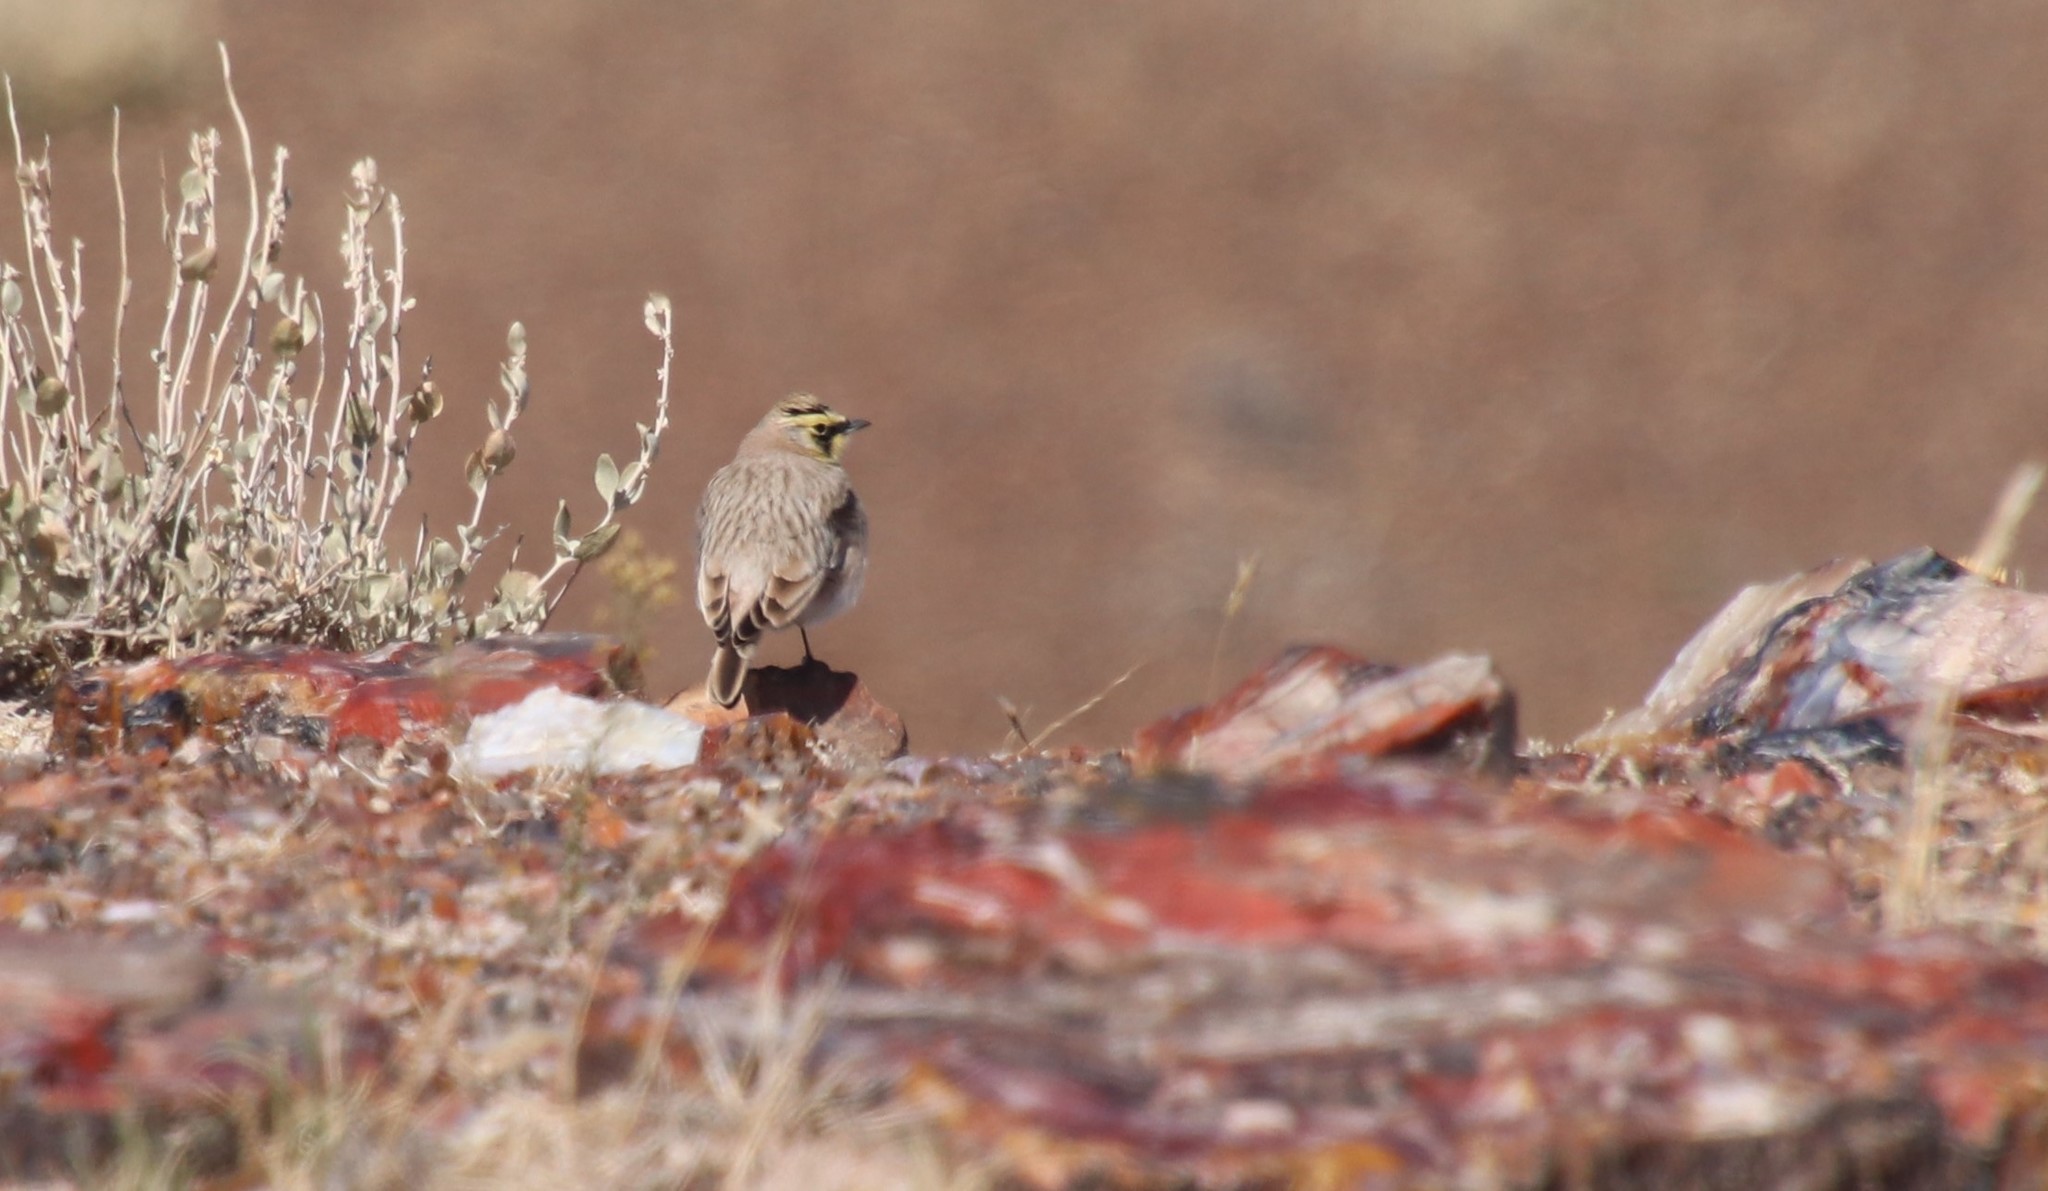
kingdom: Animalia
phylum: Chordata
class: Aves
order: Passeriformes
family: Alaudidae
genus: Eremophila
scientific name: Eremophila alpestris
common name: Horned lark
